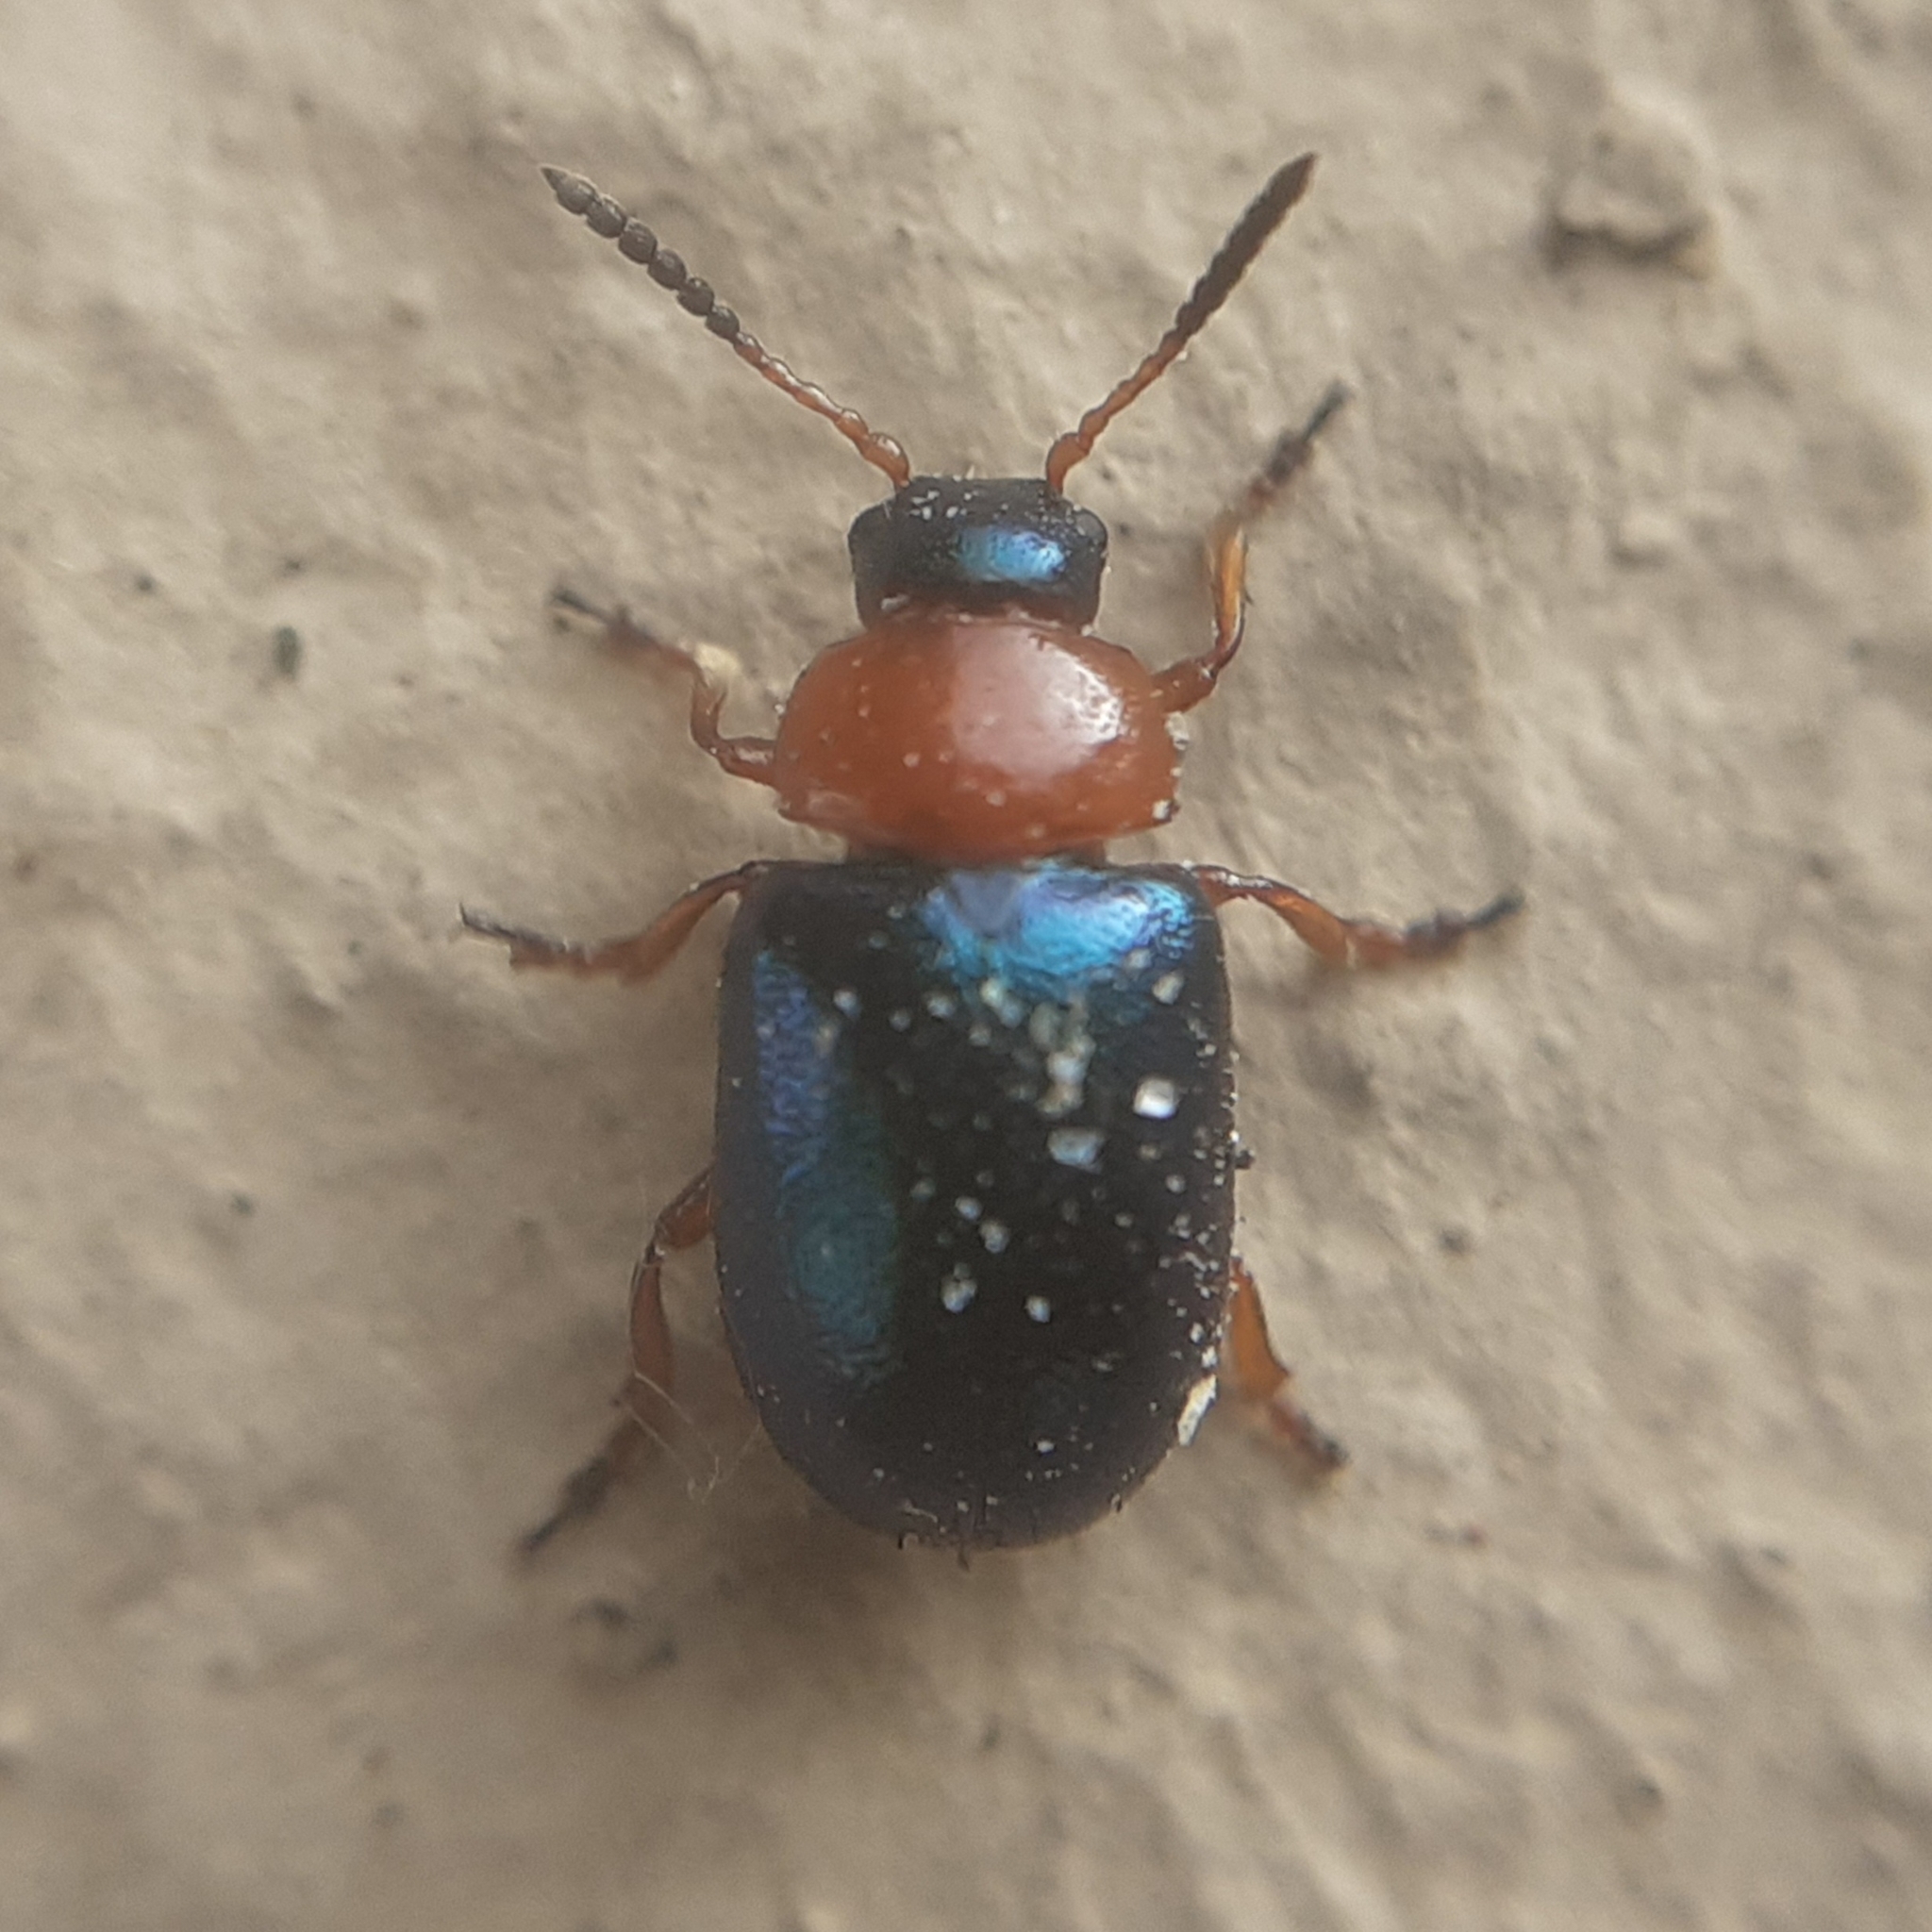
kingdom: Animalia
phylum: Arthropoda
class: Insecta
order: Coleoptera
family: Chrysomelidae
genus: Gastrophysa
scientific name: Gastrophysa polygoni
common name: Knotweed leaf beetle
